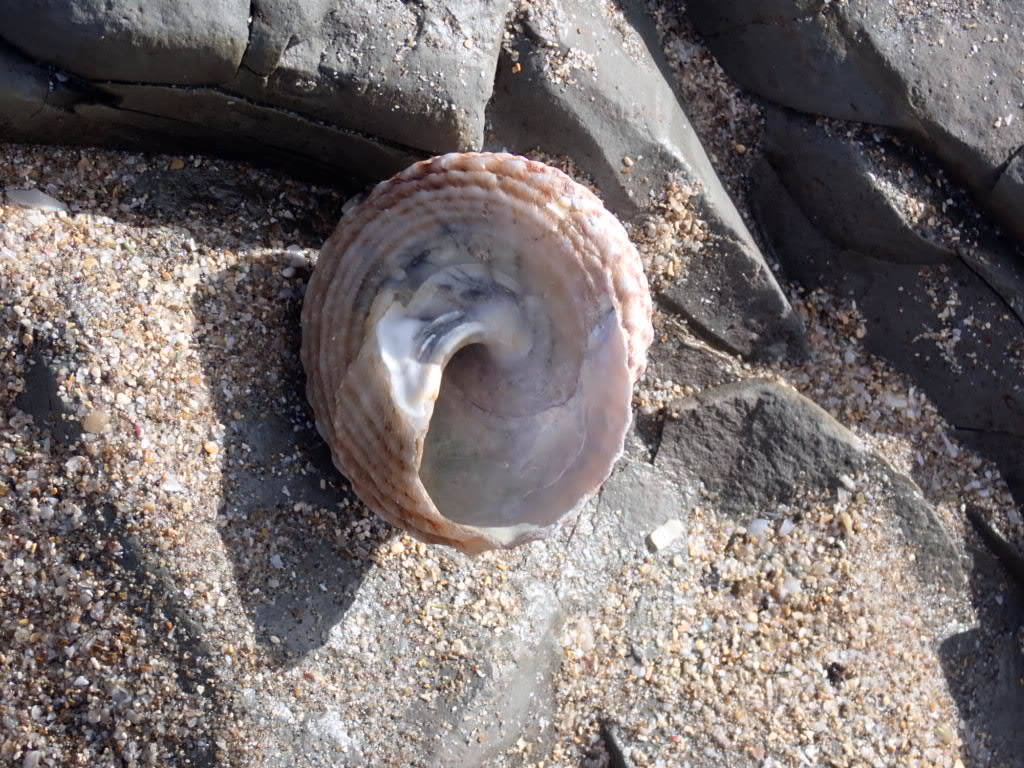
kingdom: Animalia
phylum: Mollusca
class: Gastropoda
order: Trochida
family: Turbinidae
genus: Cookia
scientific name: Cookia sulcata
